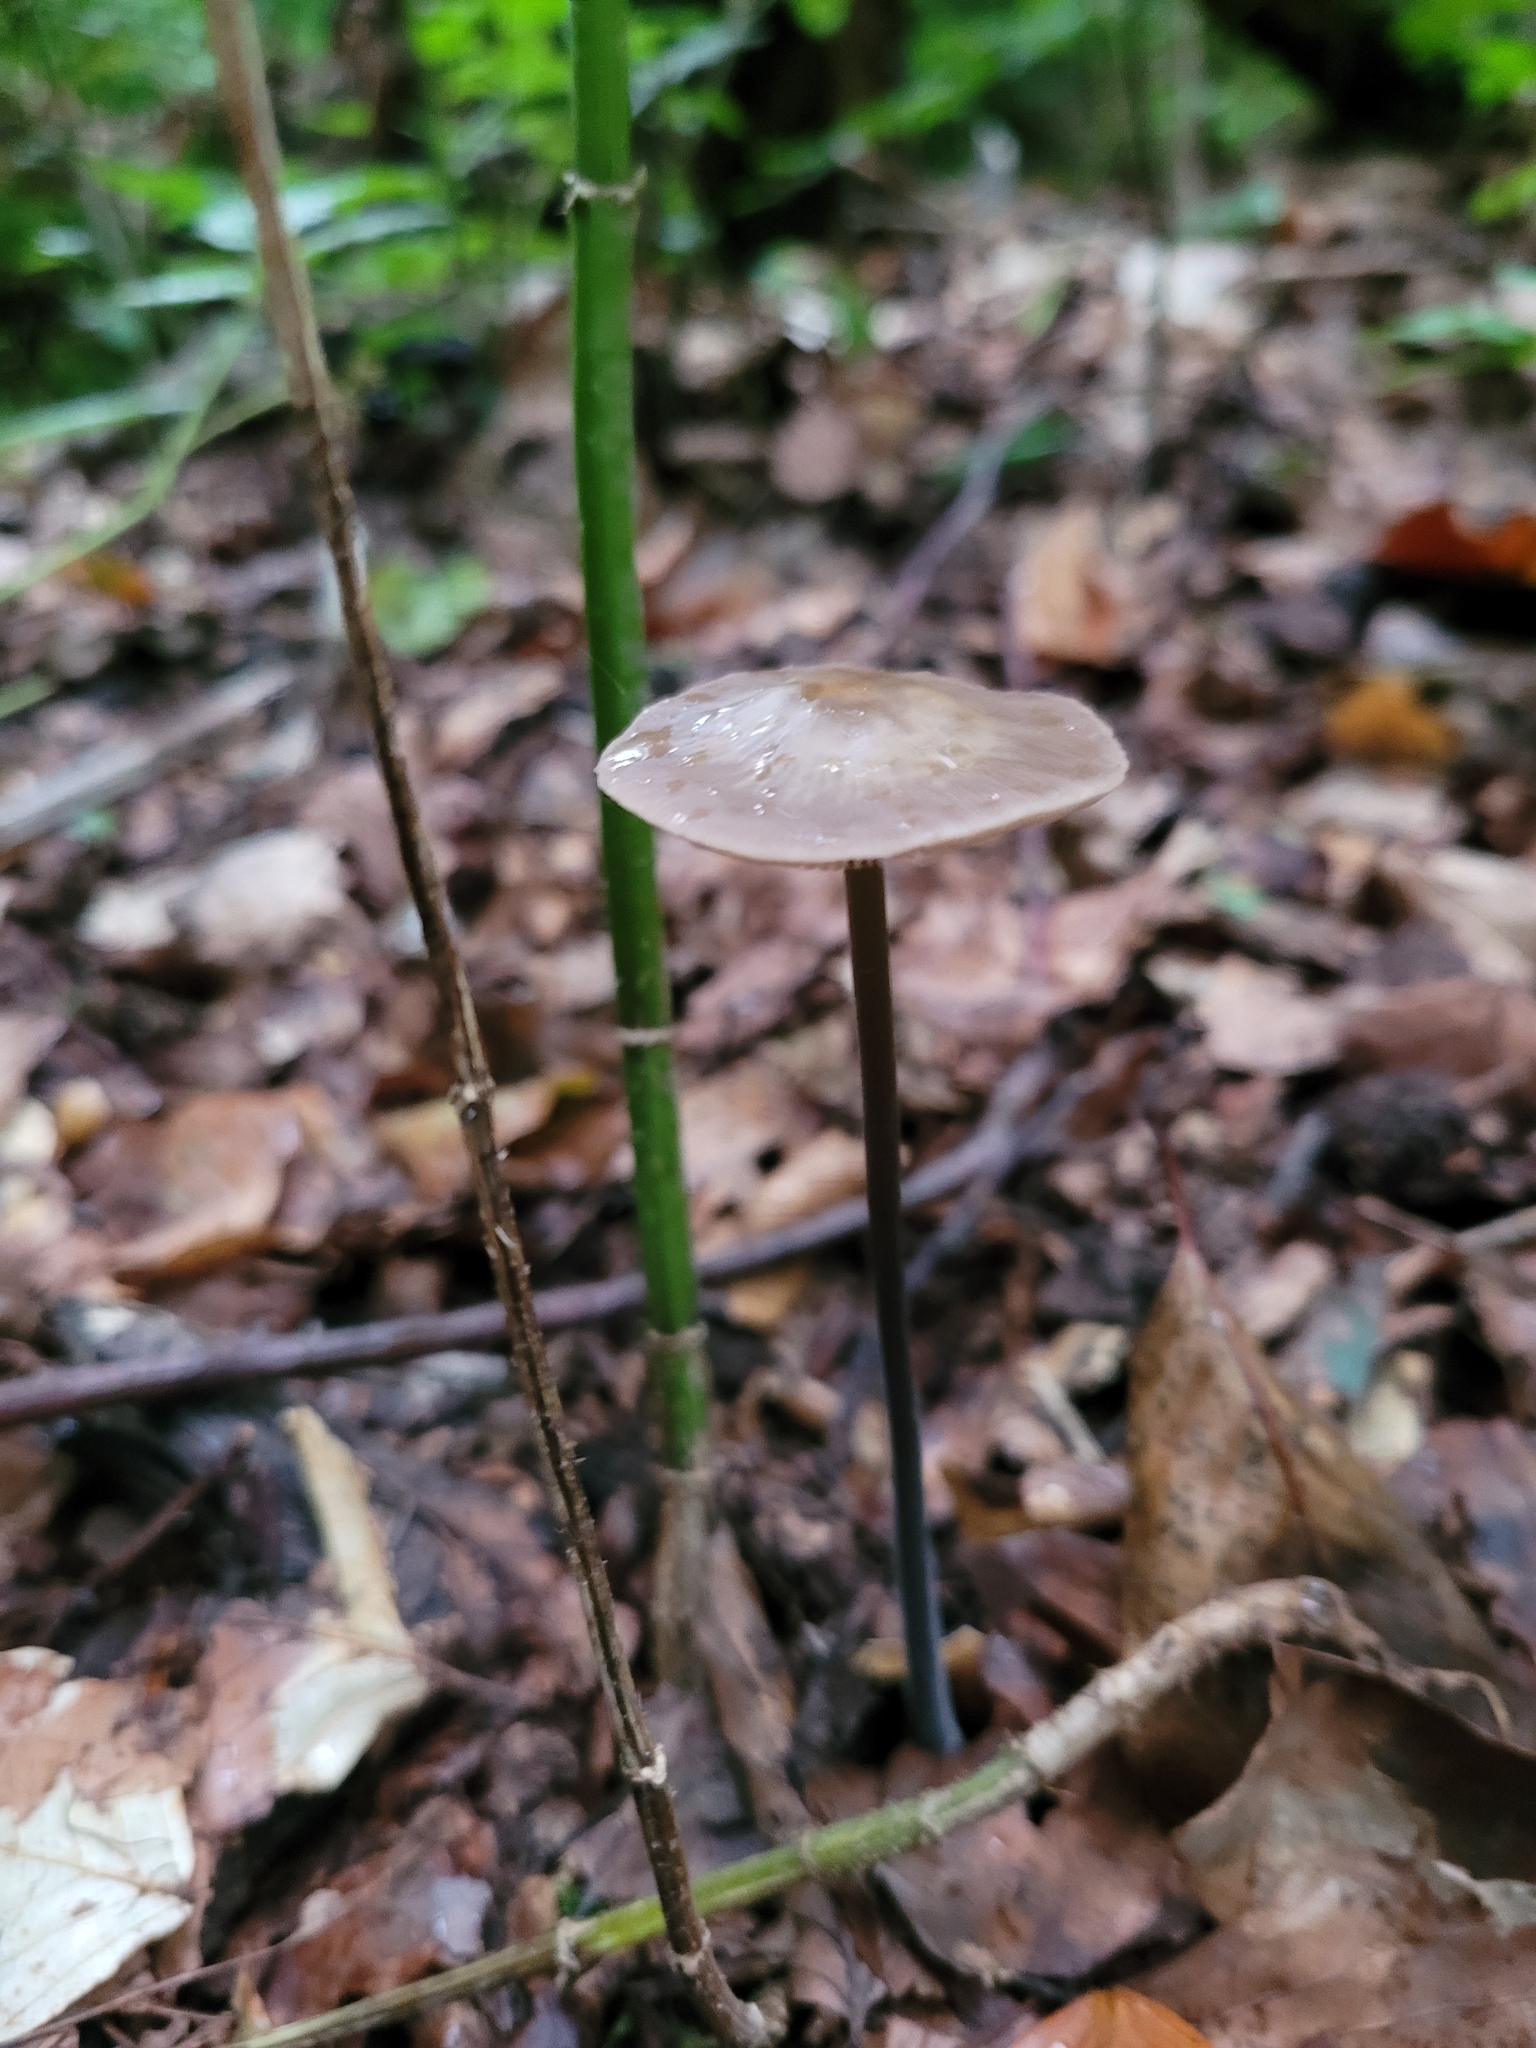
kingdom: Fungi
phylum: Basidiomycota
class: Agaricomycetes
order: Agaricales
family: Omphalotaceae
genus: Mycetinis
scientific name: Mycetinis alliaceus
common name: Garlic parachute
